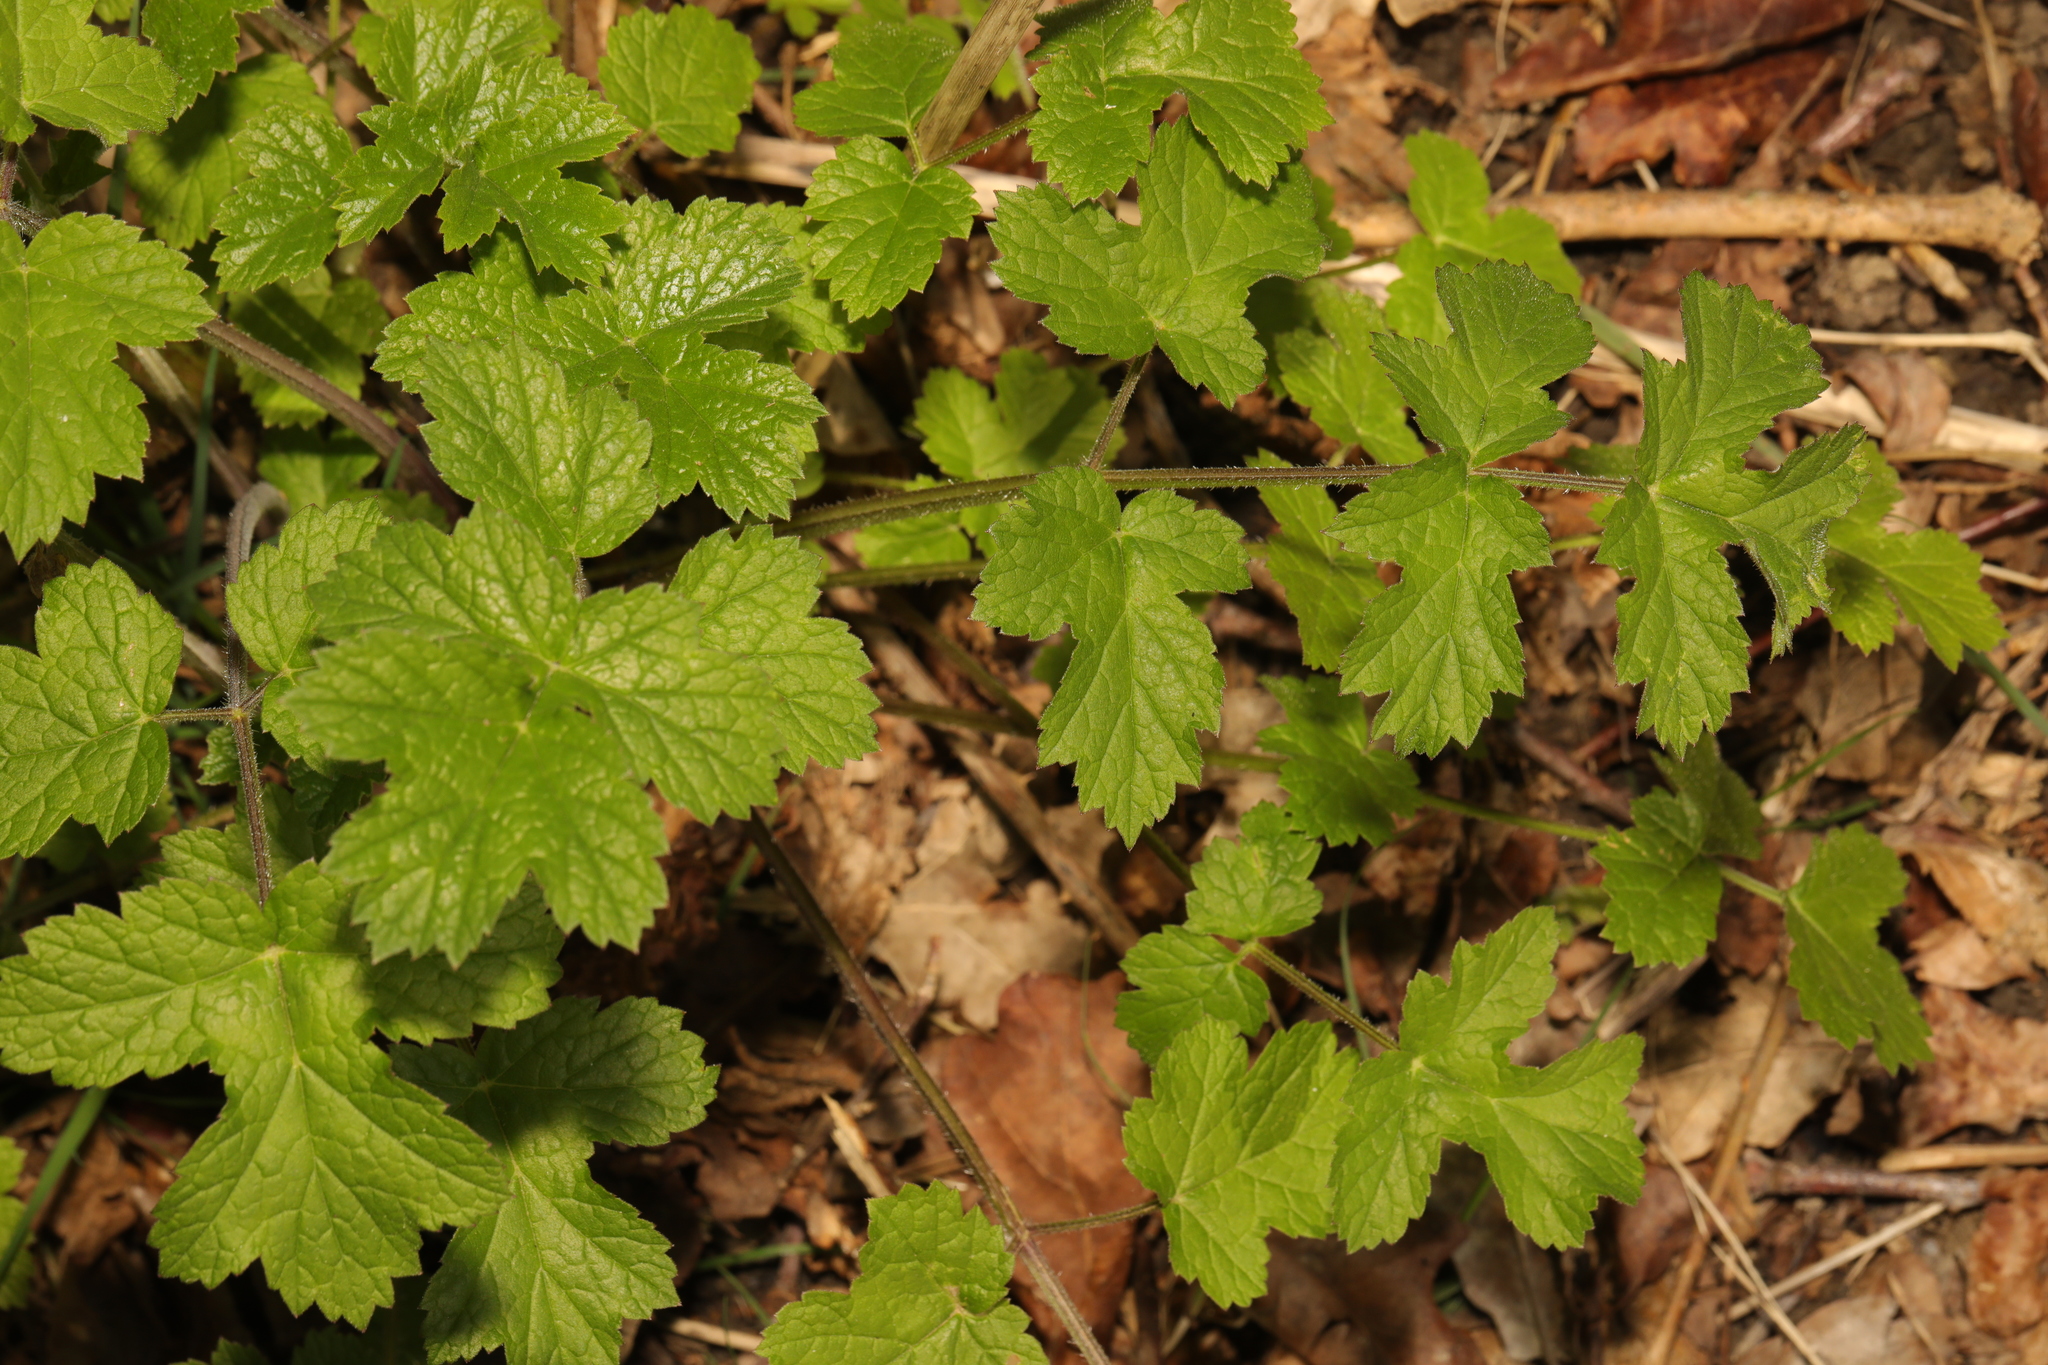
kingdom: Plantae
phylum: Tracheophyta
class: Magnoliopsida
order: Apiales
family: Apiaceae
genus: Heracleum
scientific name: Heracleum sphondylium
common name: Hogweed
